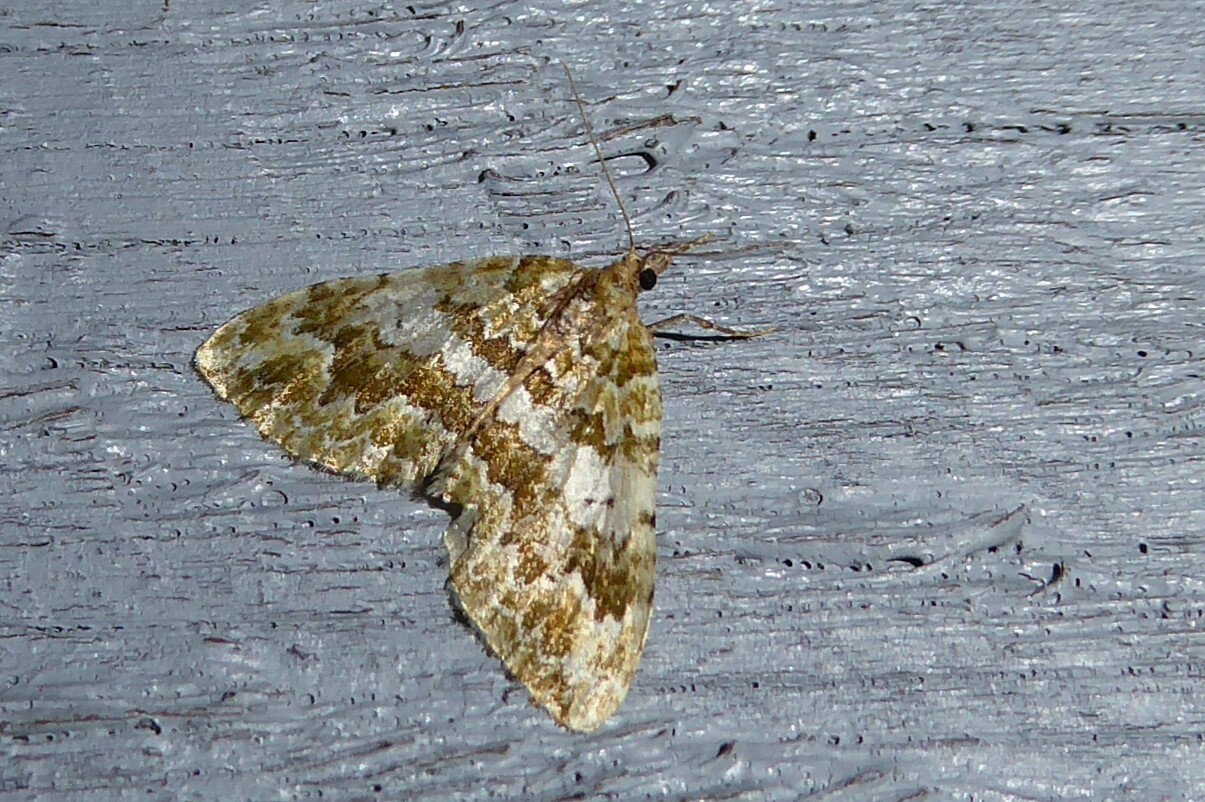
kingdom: Animalia
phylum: Arthropoda
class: Insecta
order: Lepidoptera
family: Geometridae
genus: Asaphodes
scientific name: Asaphodes beata
